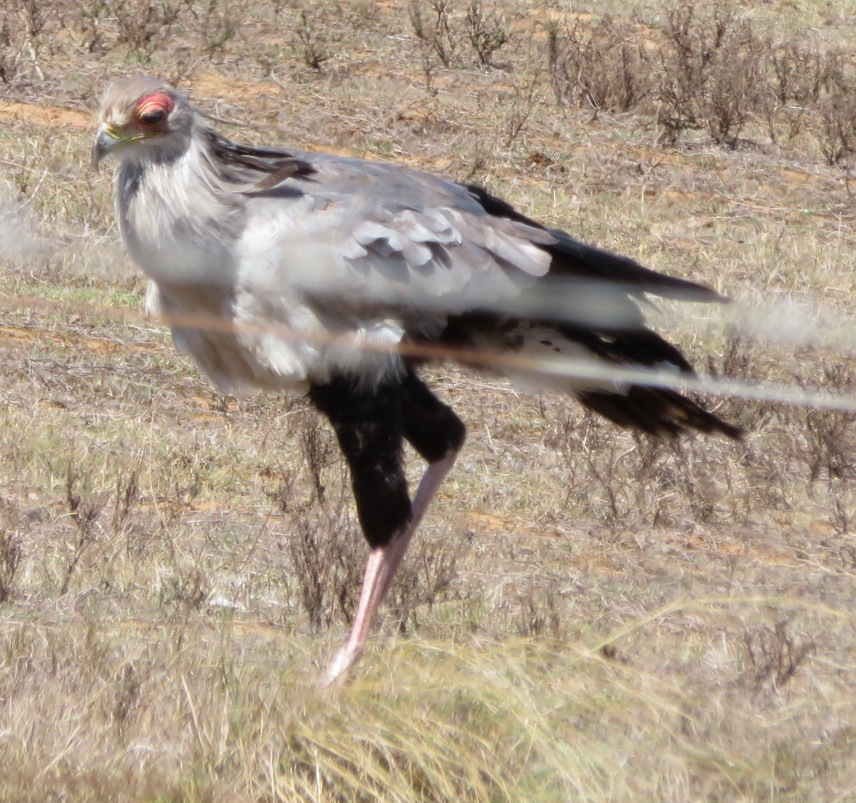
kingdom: Animalia
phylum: Chordata
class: Aves
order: Accipitriformes
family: Sagittariidae
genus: Sagittarius
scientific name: Sagittarius serpentarius
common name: Secretarybird
